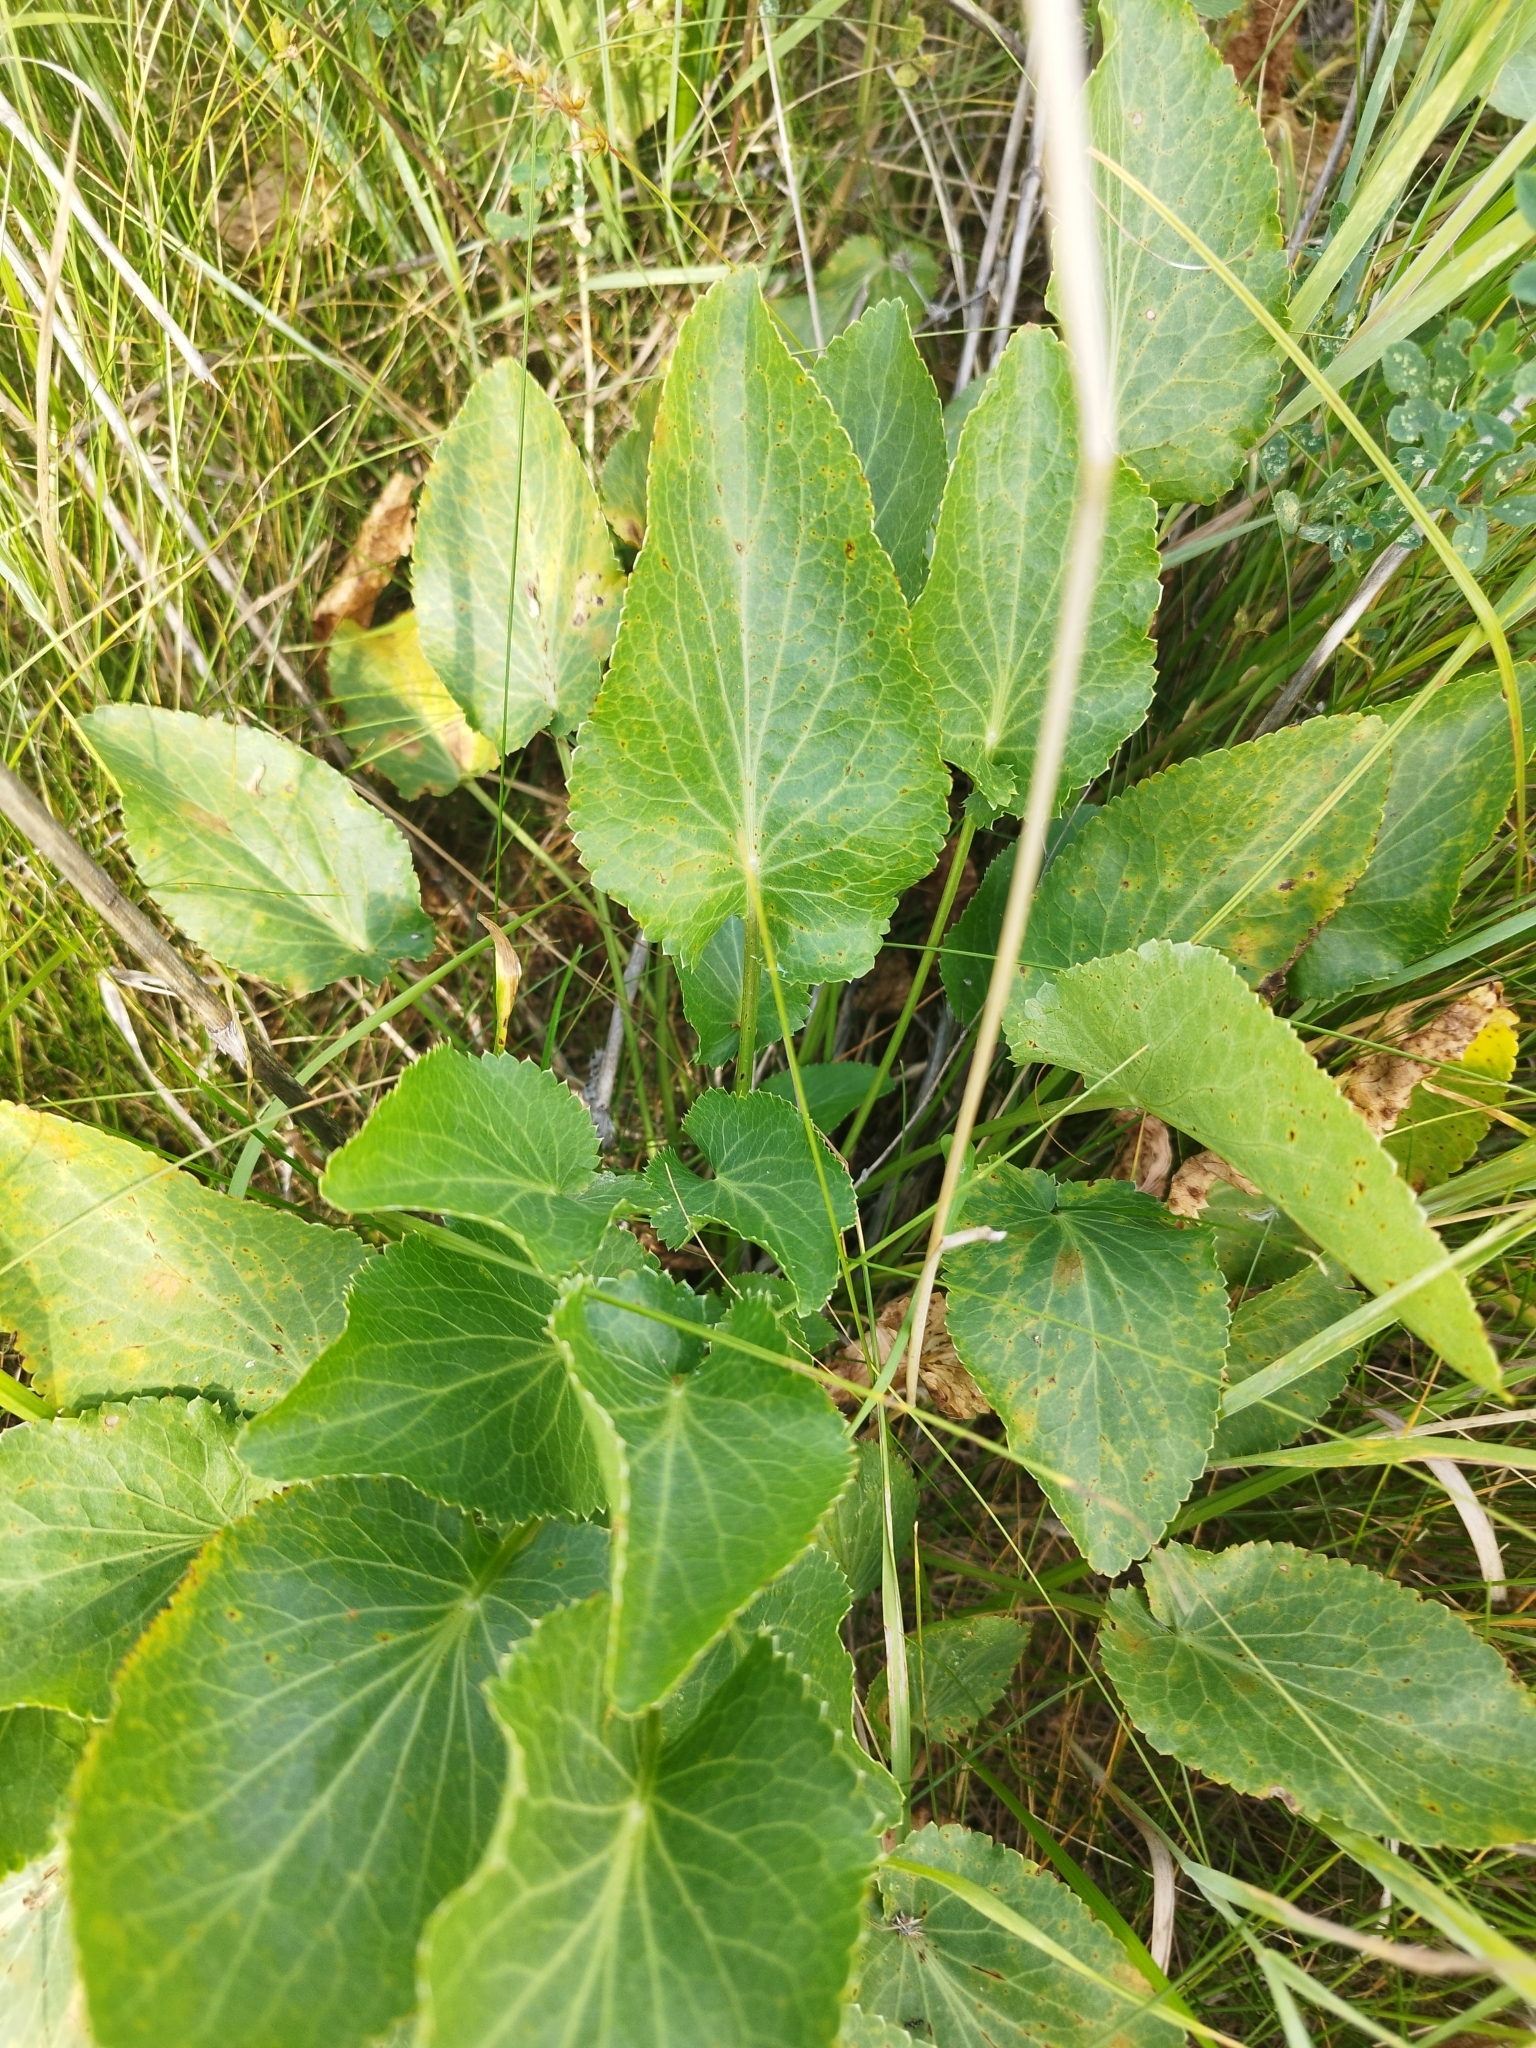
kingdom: Plantae
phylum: Tracheophyta
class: Magnoliopsida
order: Apiales
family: Apiaceae
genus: Eryngium
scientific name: Eryngium planum
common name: Blue eryngo
